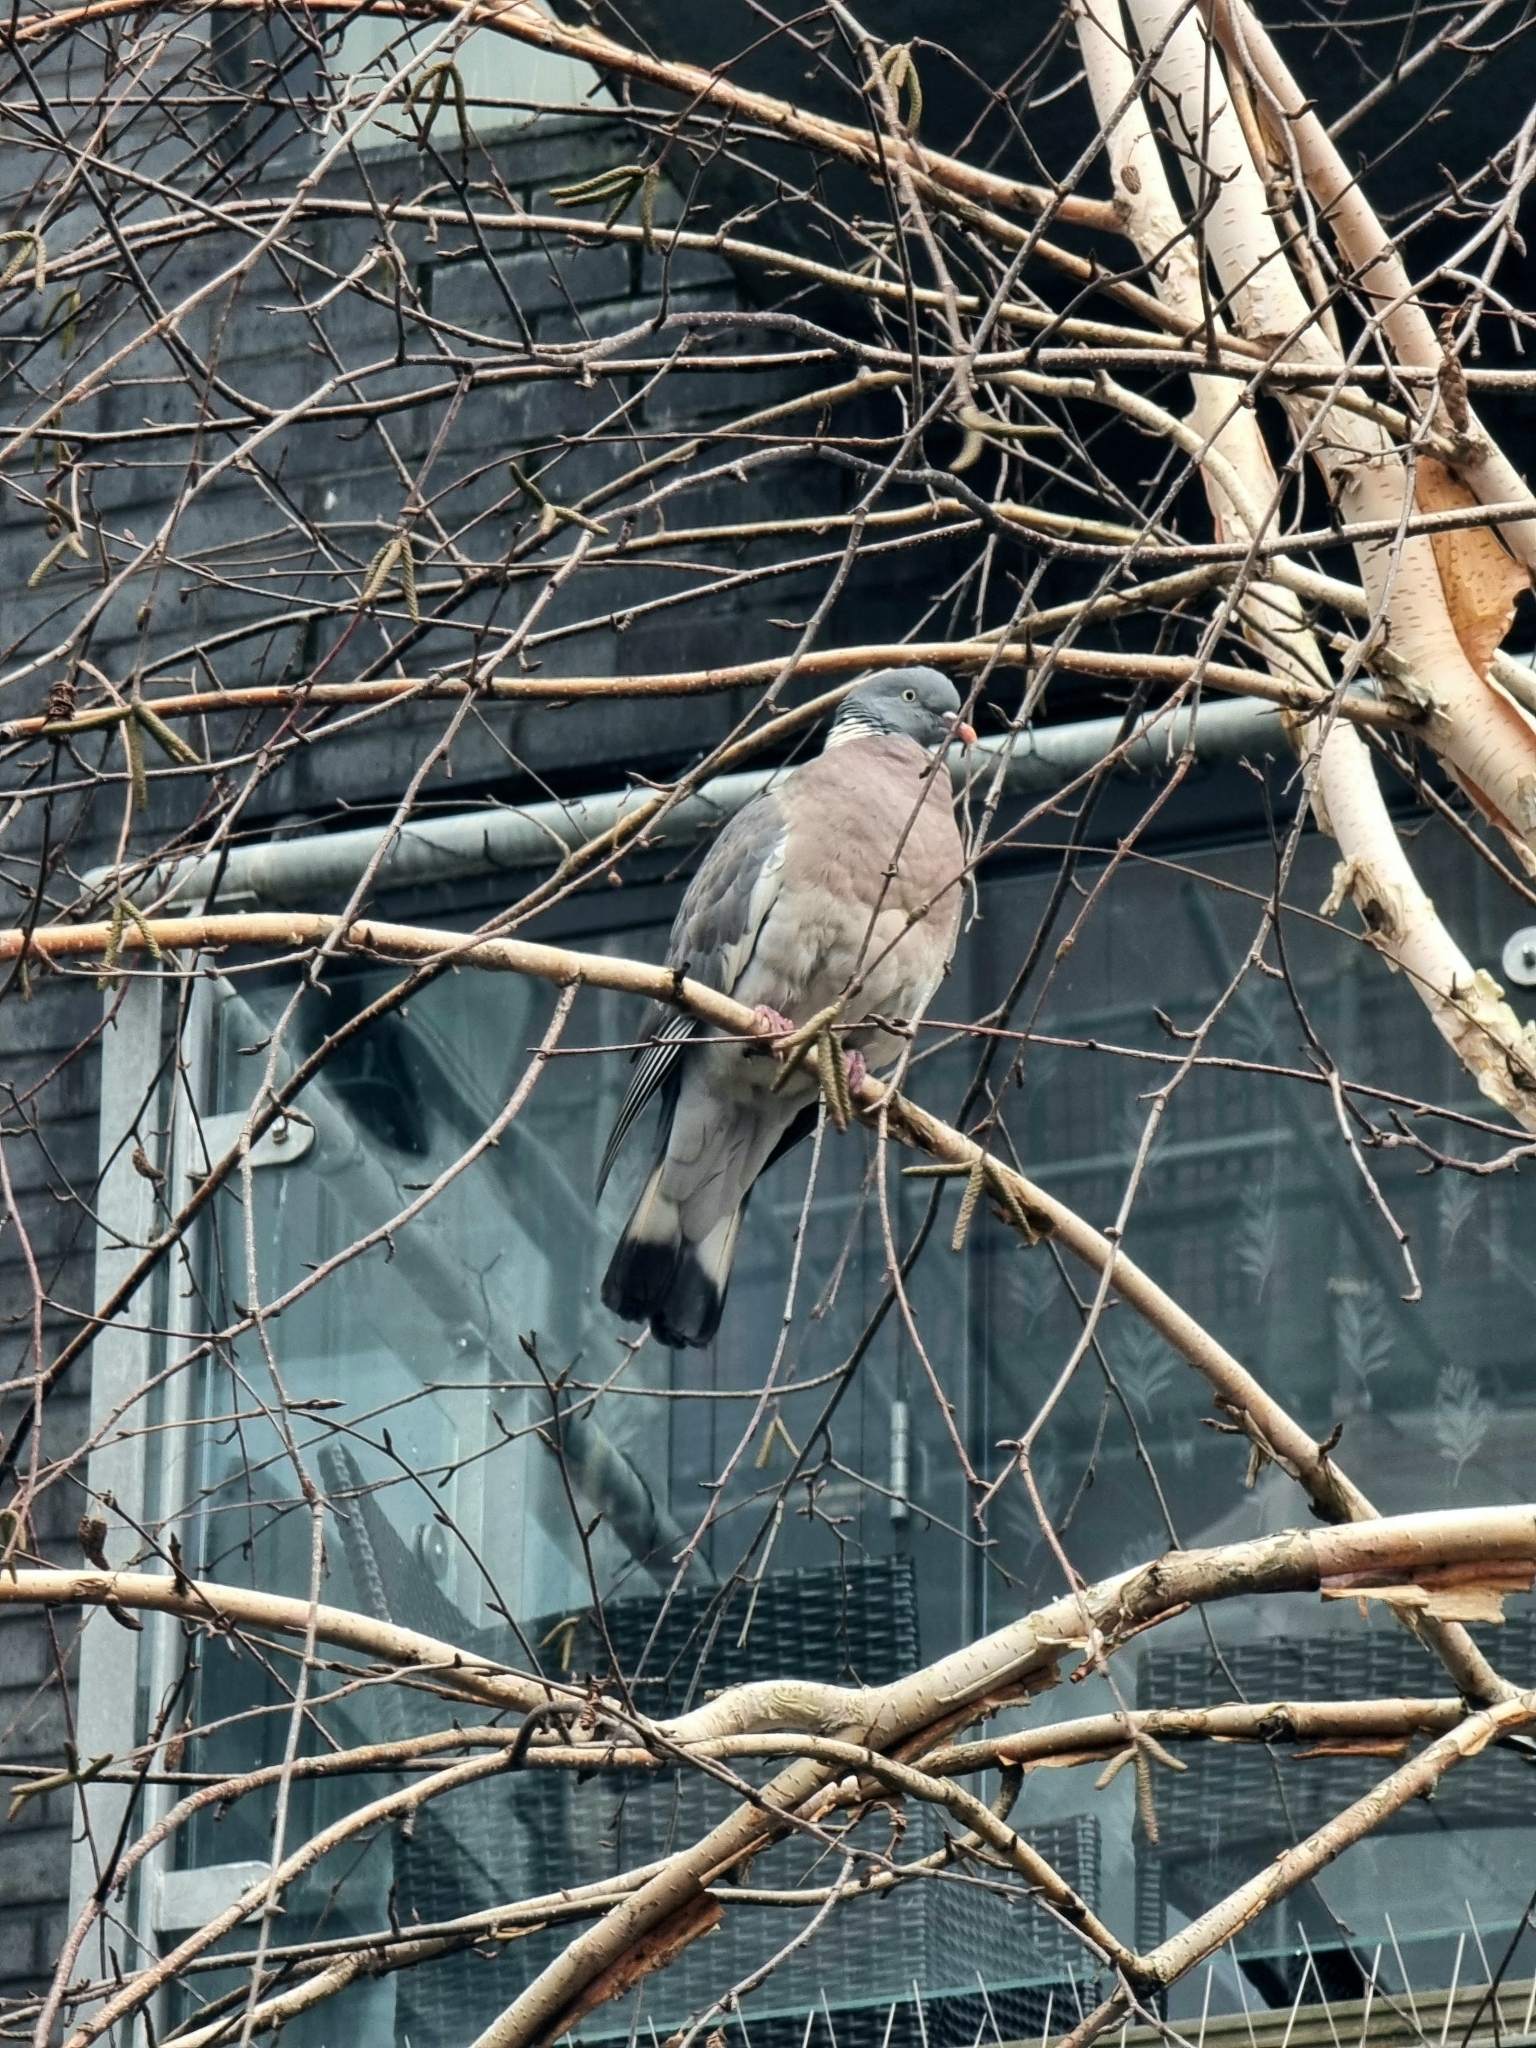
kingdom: Animalia
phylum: Chordata
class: Aves
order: Columbiformes
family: Columbidae
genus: Columba
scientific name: Columba palumbus
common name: Common wood pigeon
